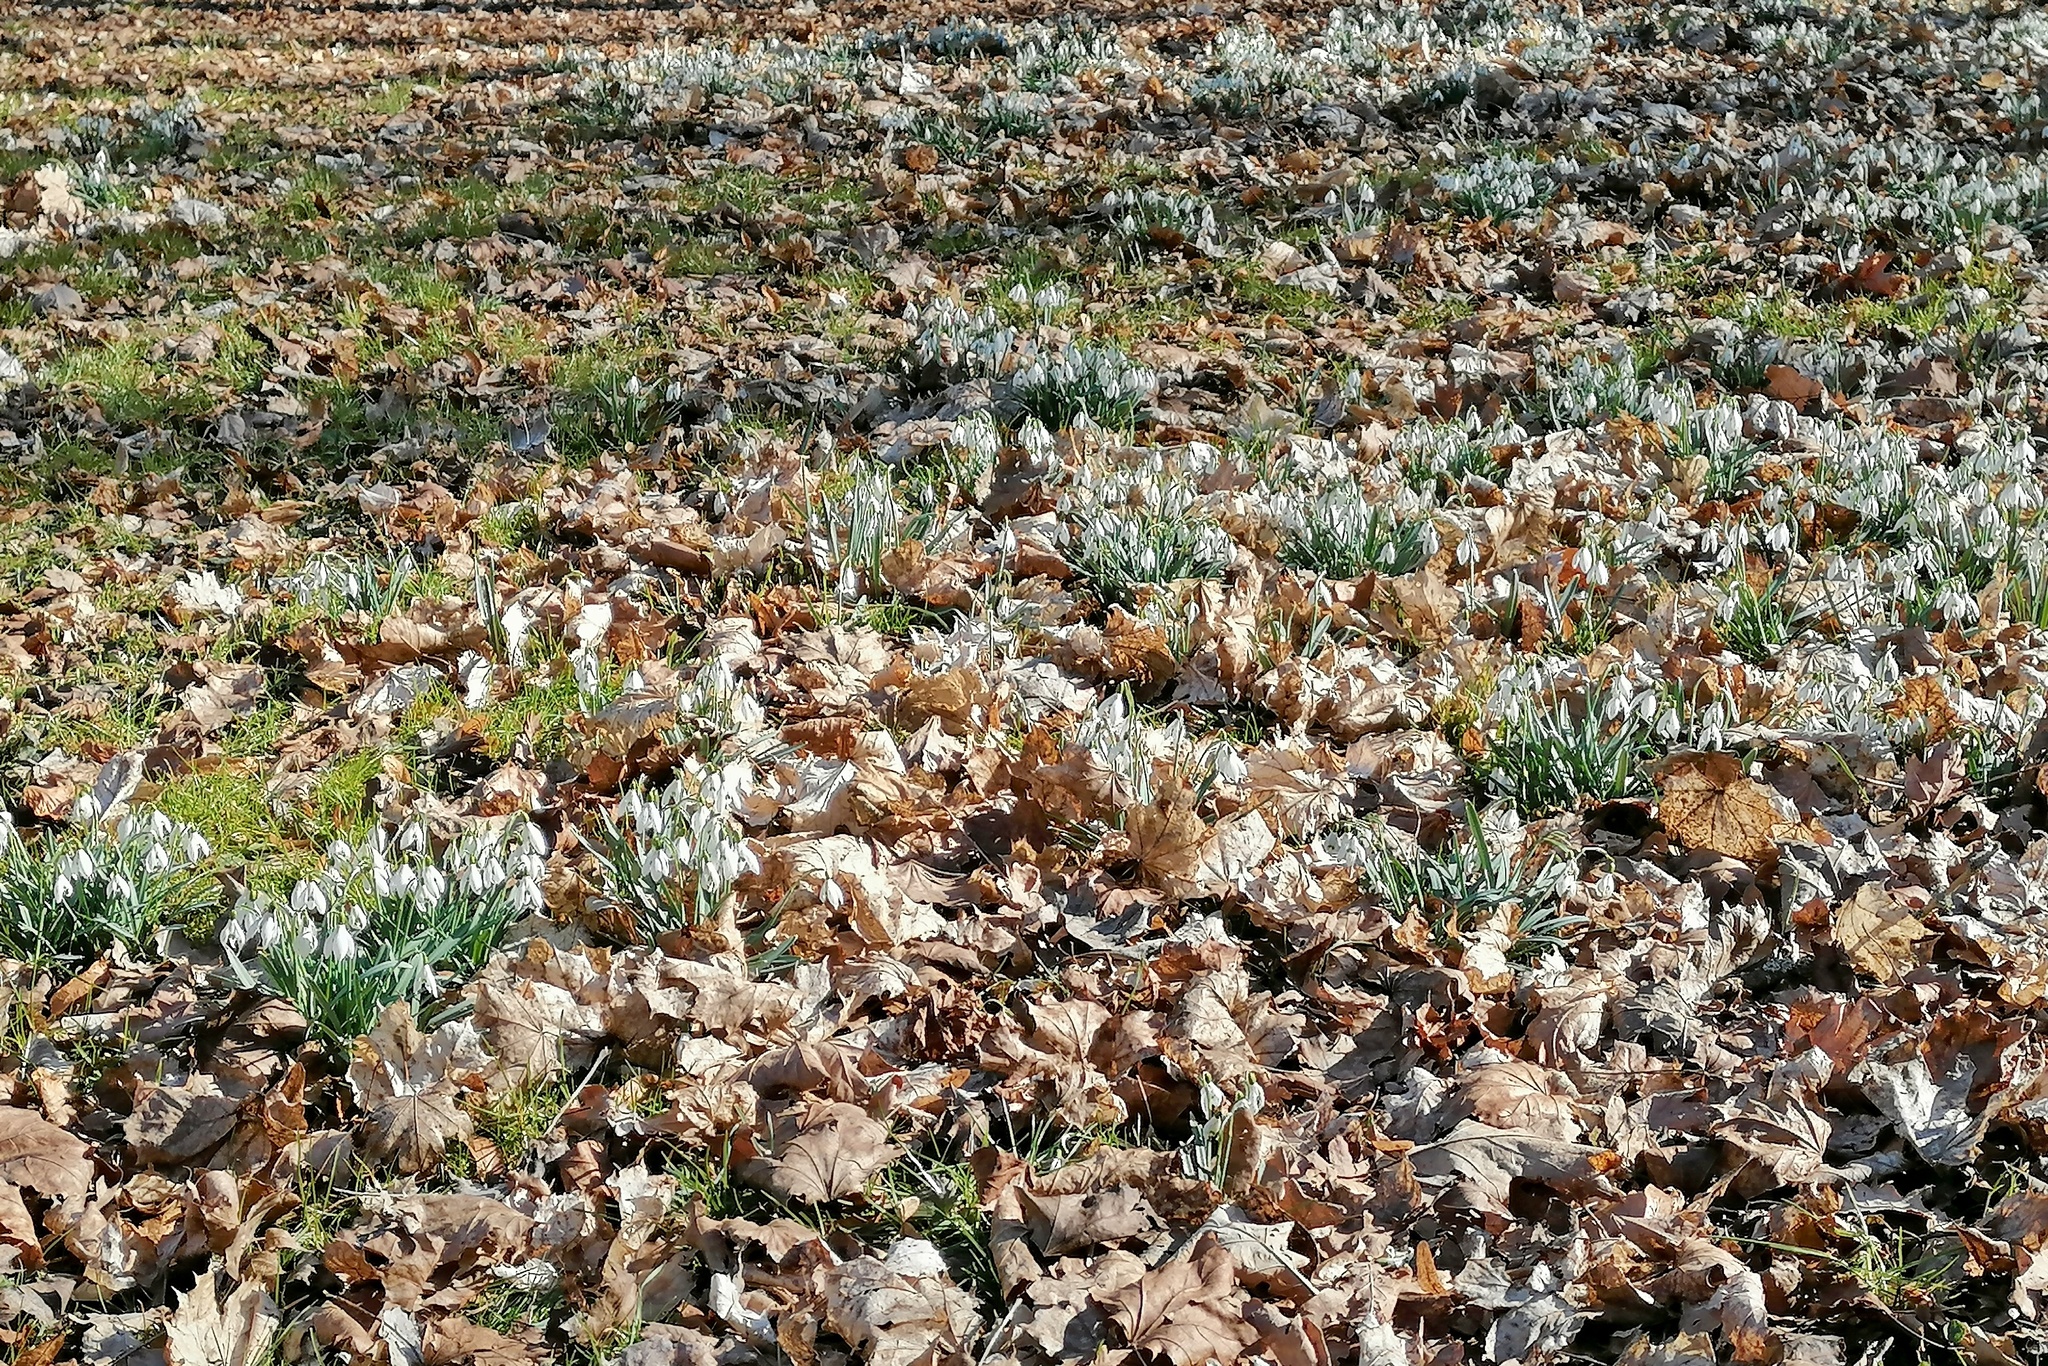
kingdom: Plantae
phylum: Tracheophyta
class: Liliopsida
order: Asparagales
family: Amaryllidaceae
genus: Galanthus
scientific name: Galanthus nivalis
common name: Snowdrop
